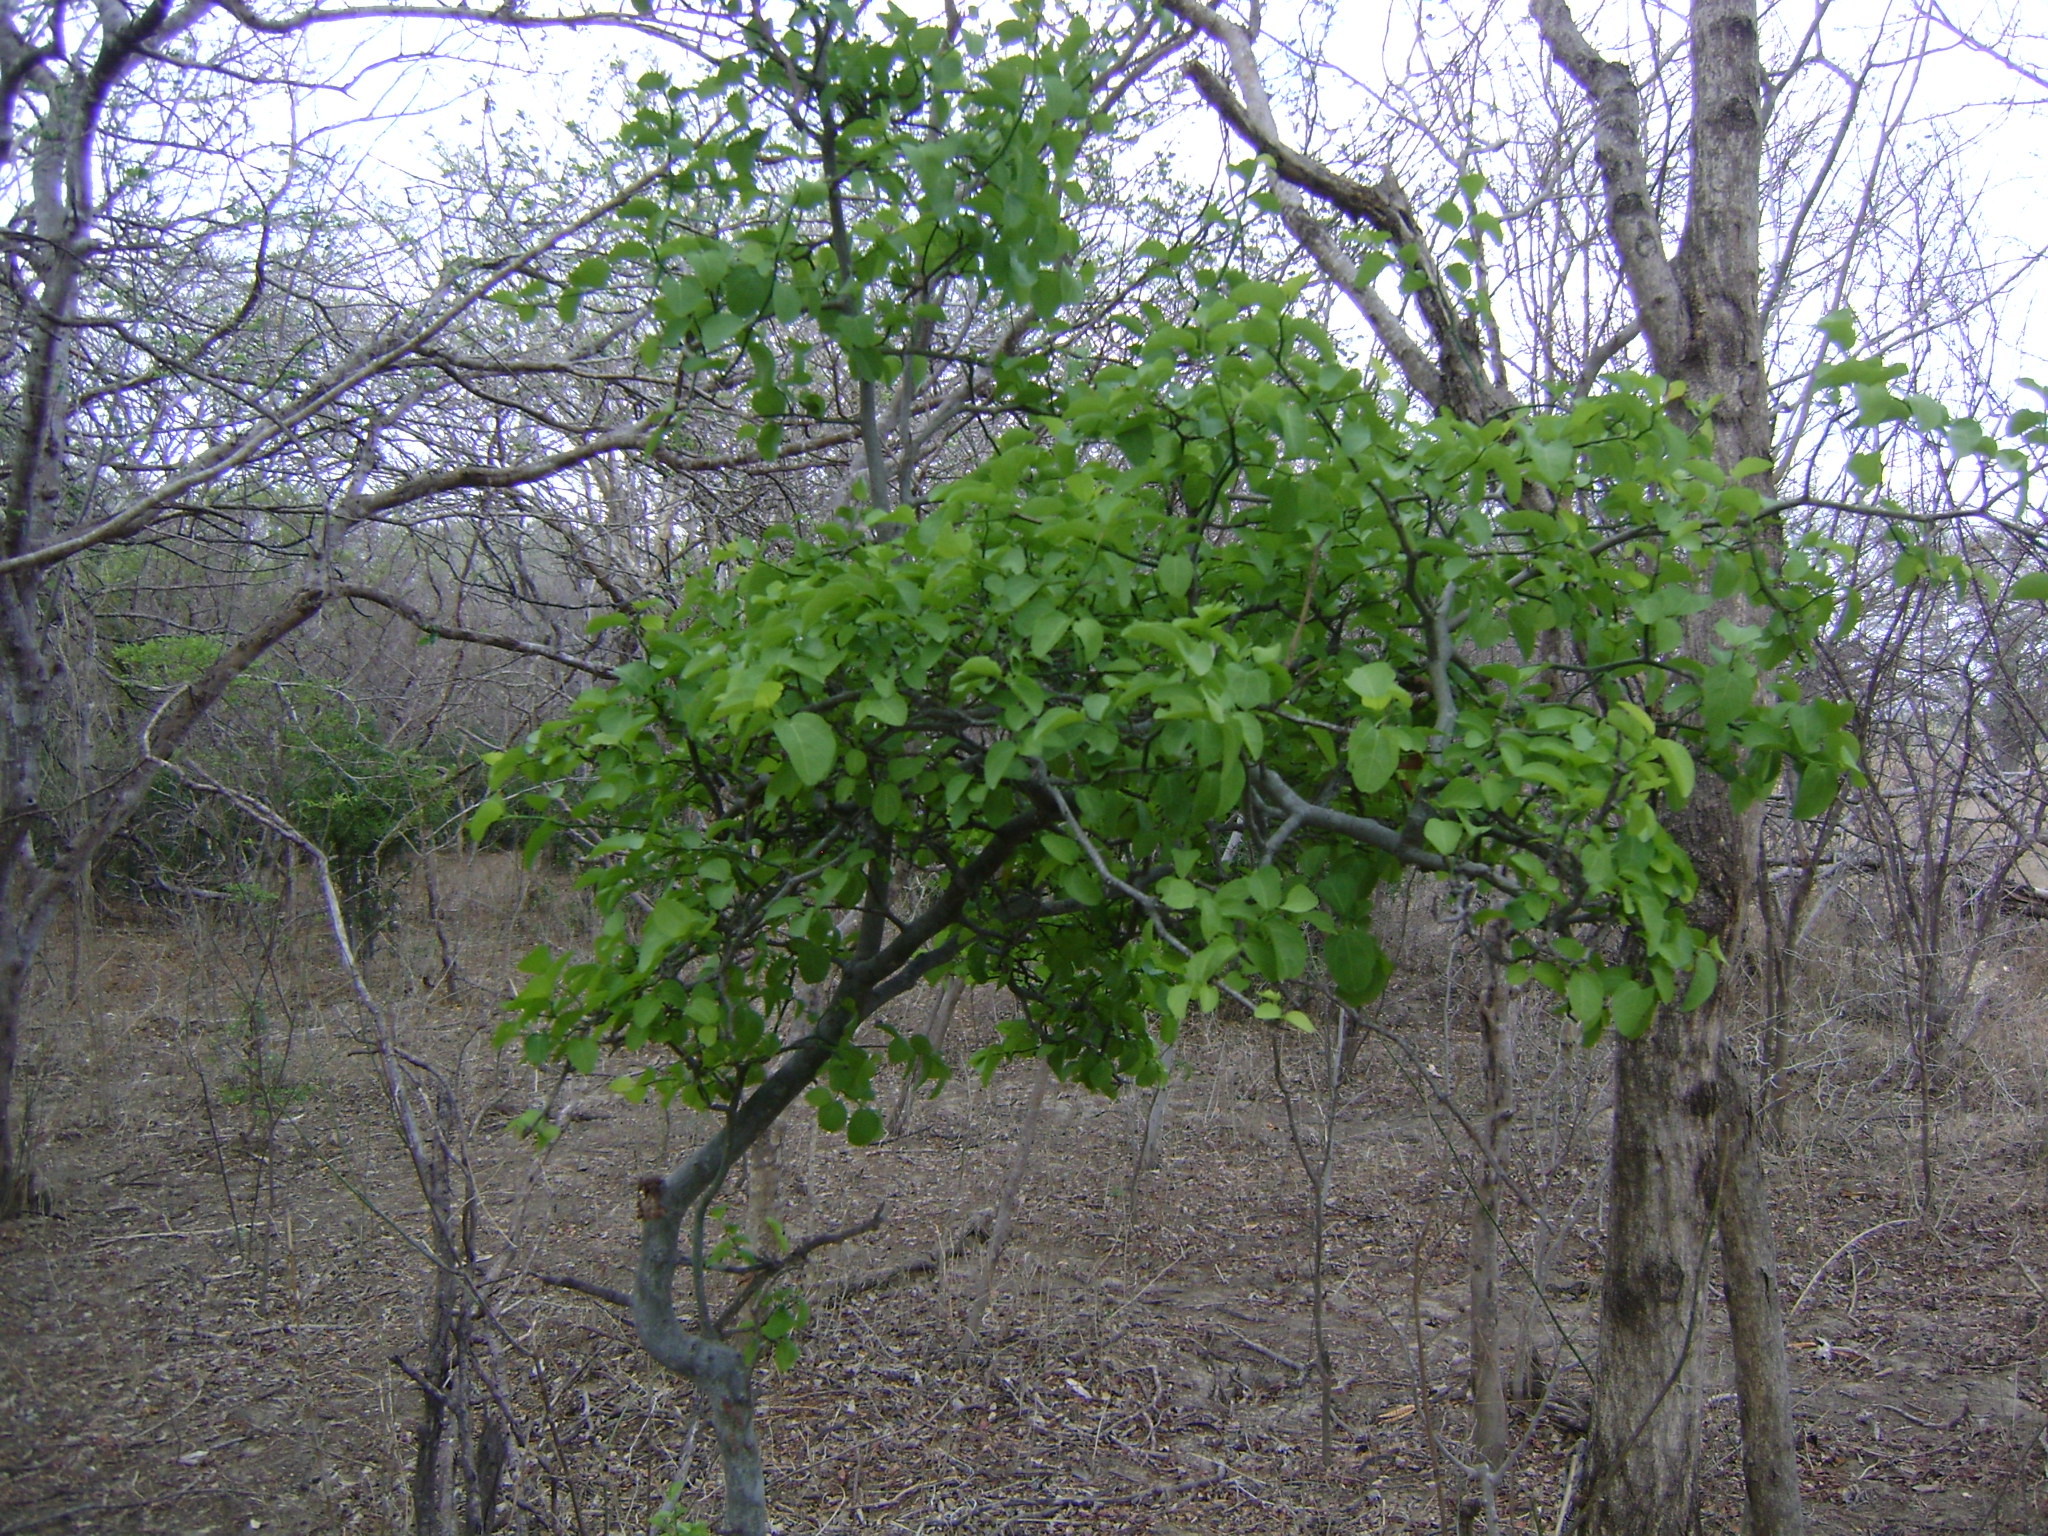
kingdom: Plantae
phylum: Tracheophyta
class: Magnoliopsida
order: Rosales
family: Rhamnaceae
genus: Sarcomphalus
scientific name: Sarcomphalus amole
